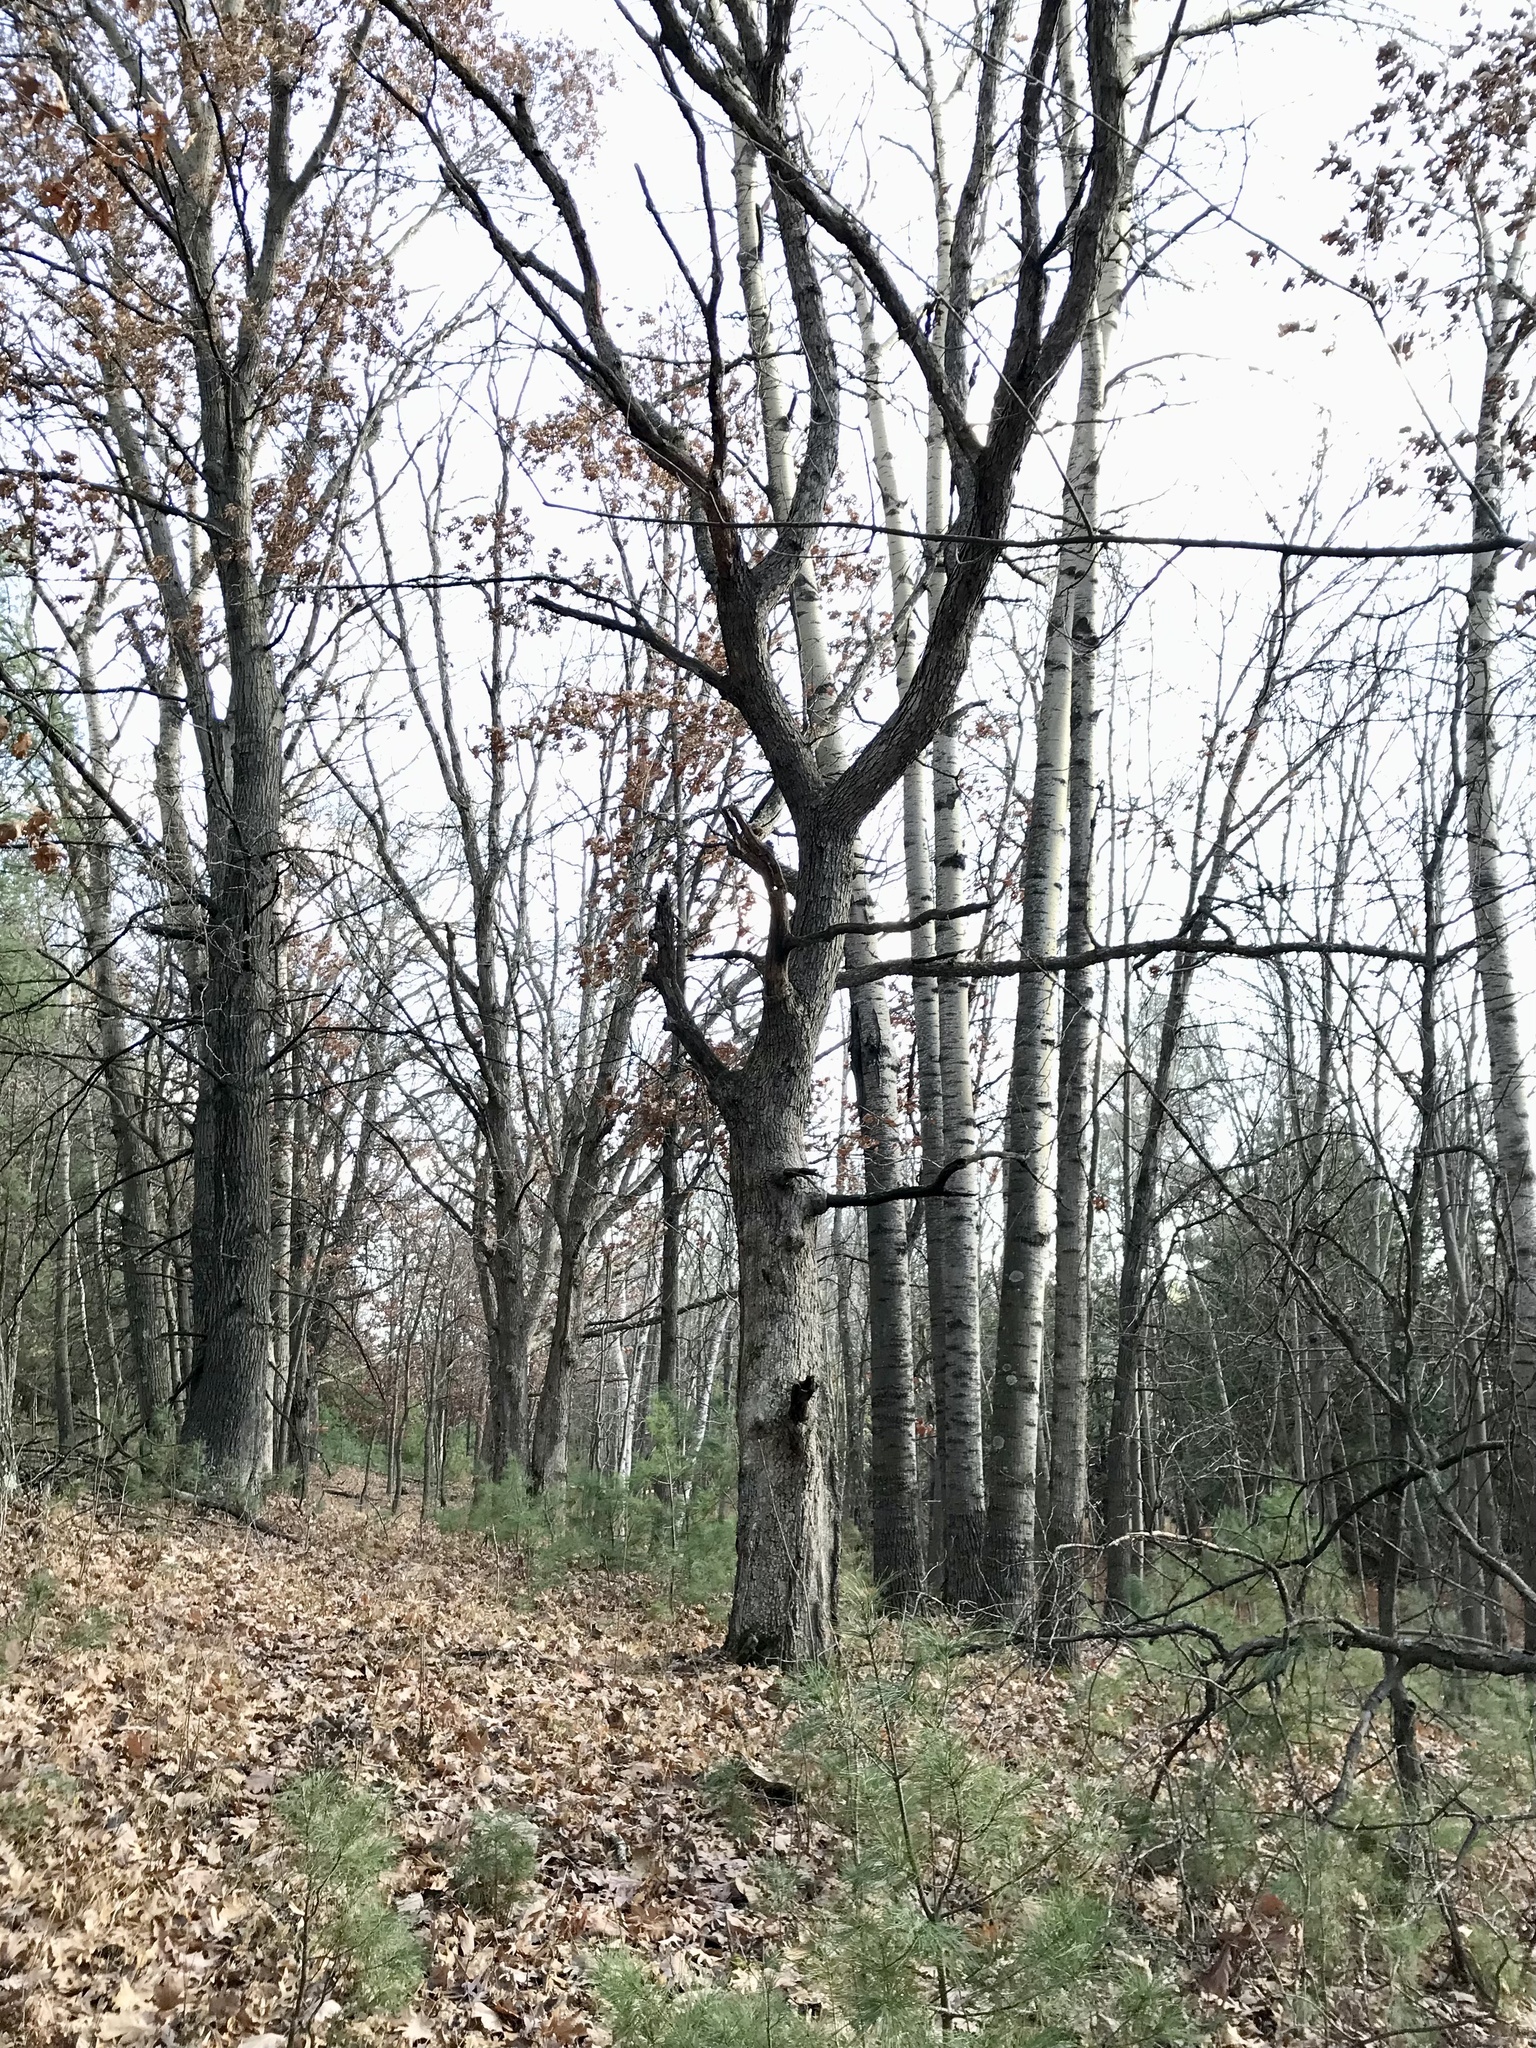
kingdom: Plantae
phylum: Tracheophyta
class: Magnoliopsida
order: Fagales
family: Fagaceae
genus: Quercus
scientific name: Quercus alba
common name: White oak
